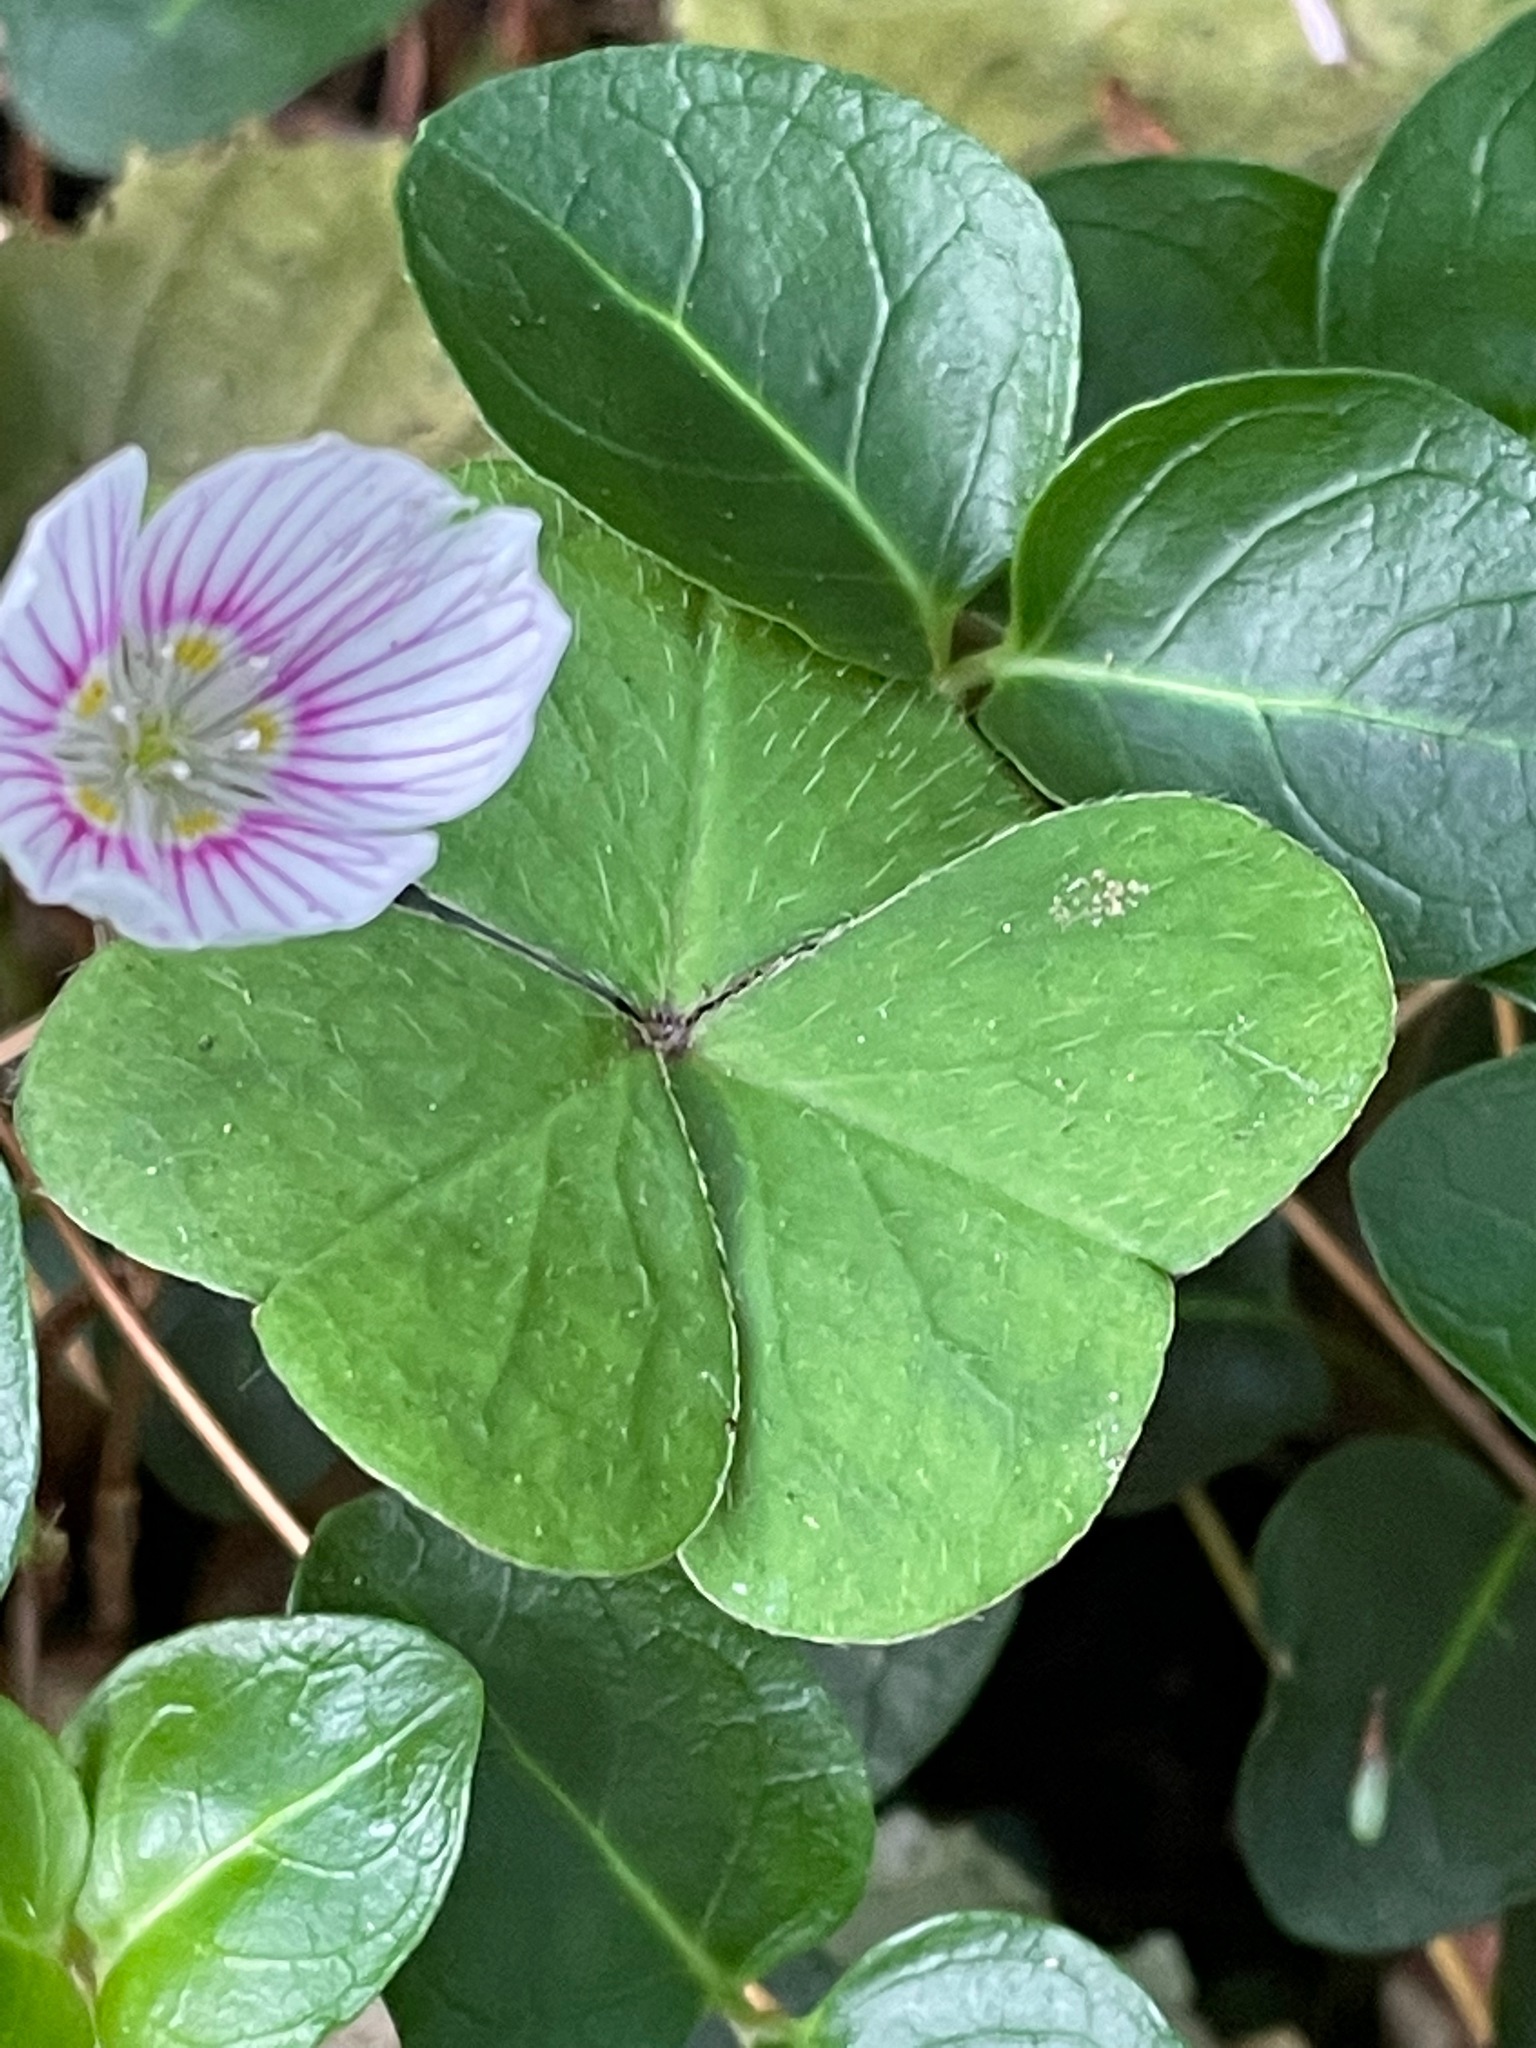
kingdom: Plantae
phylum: Tracheophyta
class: Magnoliopsida
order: Oxalidales
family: Oxalidaceae
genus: Oxalis
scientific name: Oxalis montana
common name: American wood-sorrel
